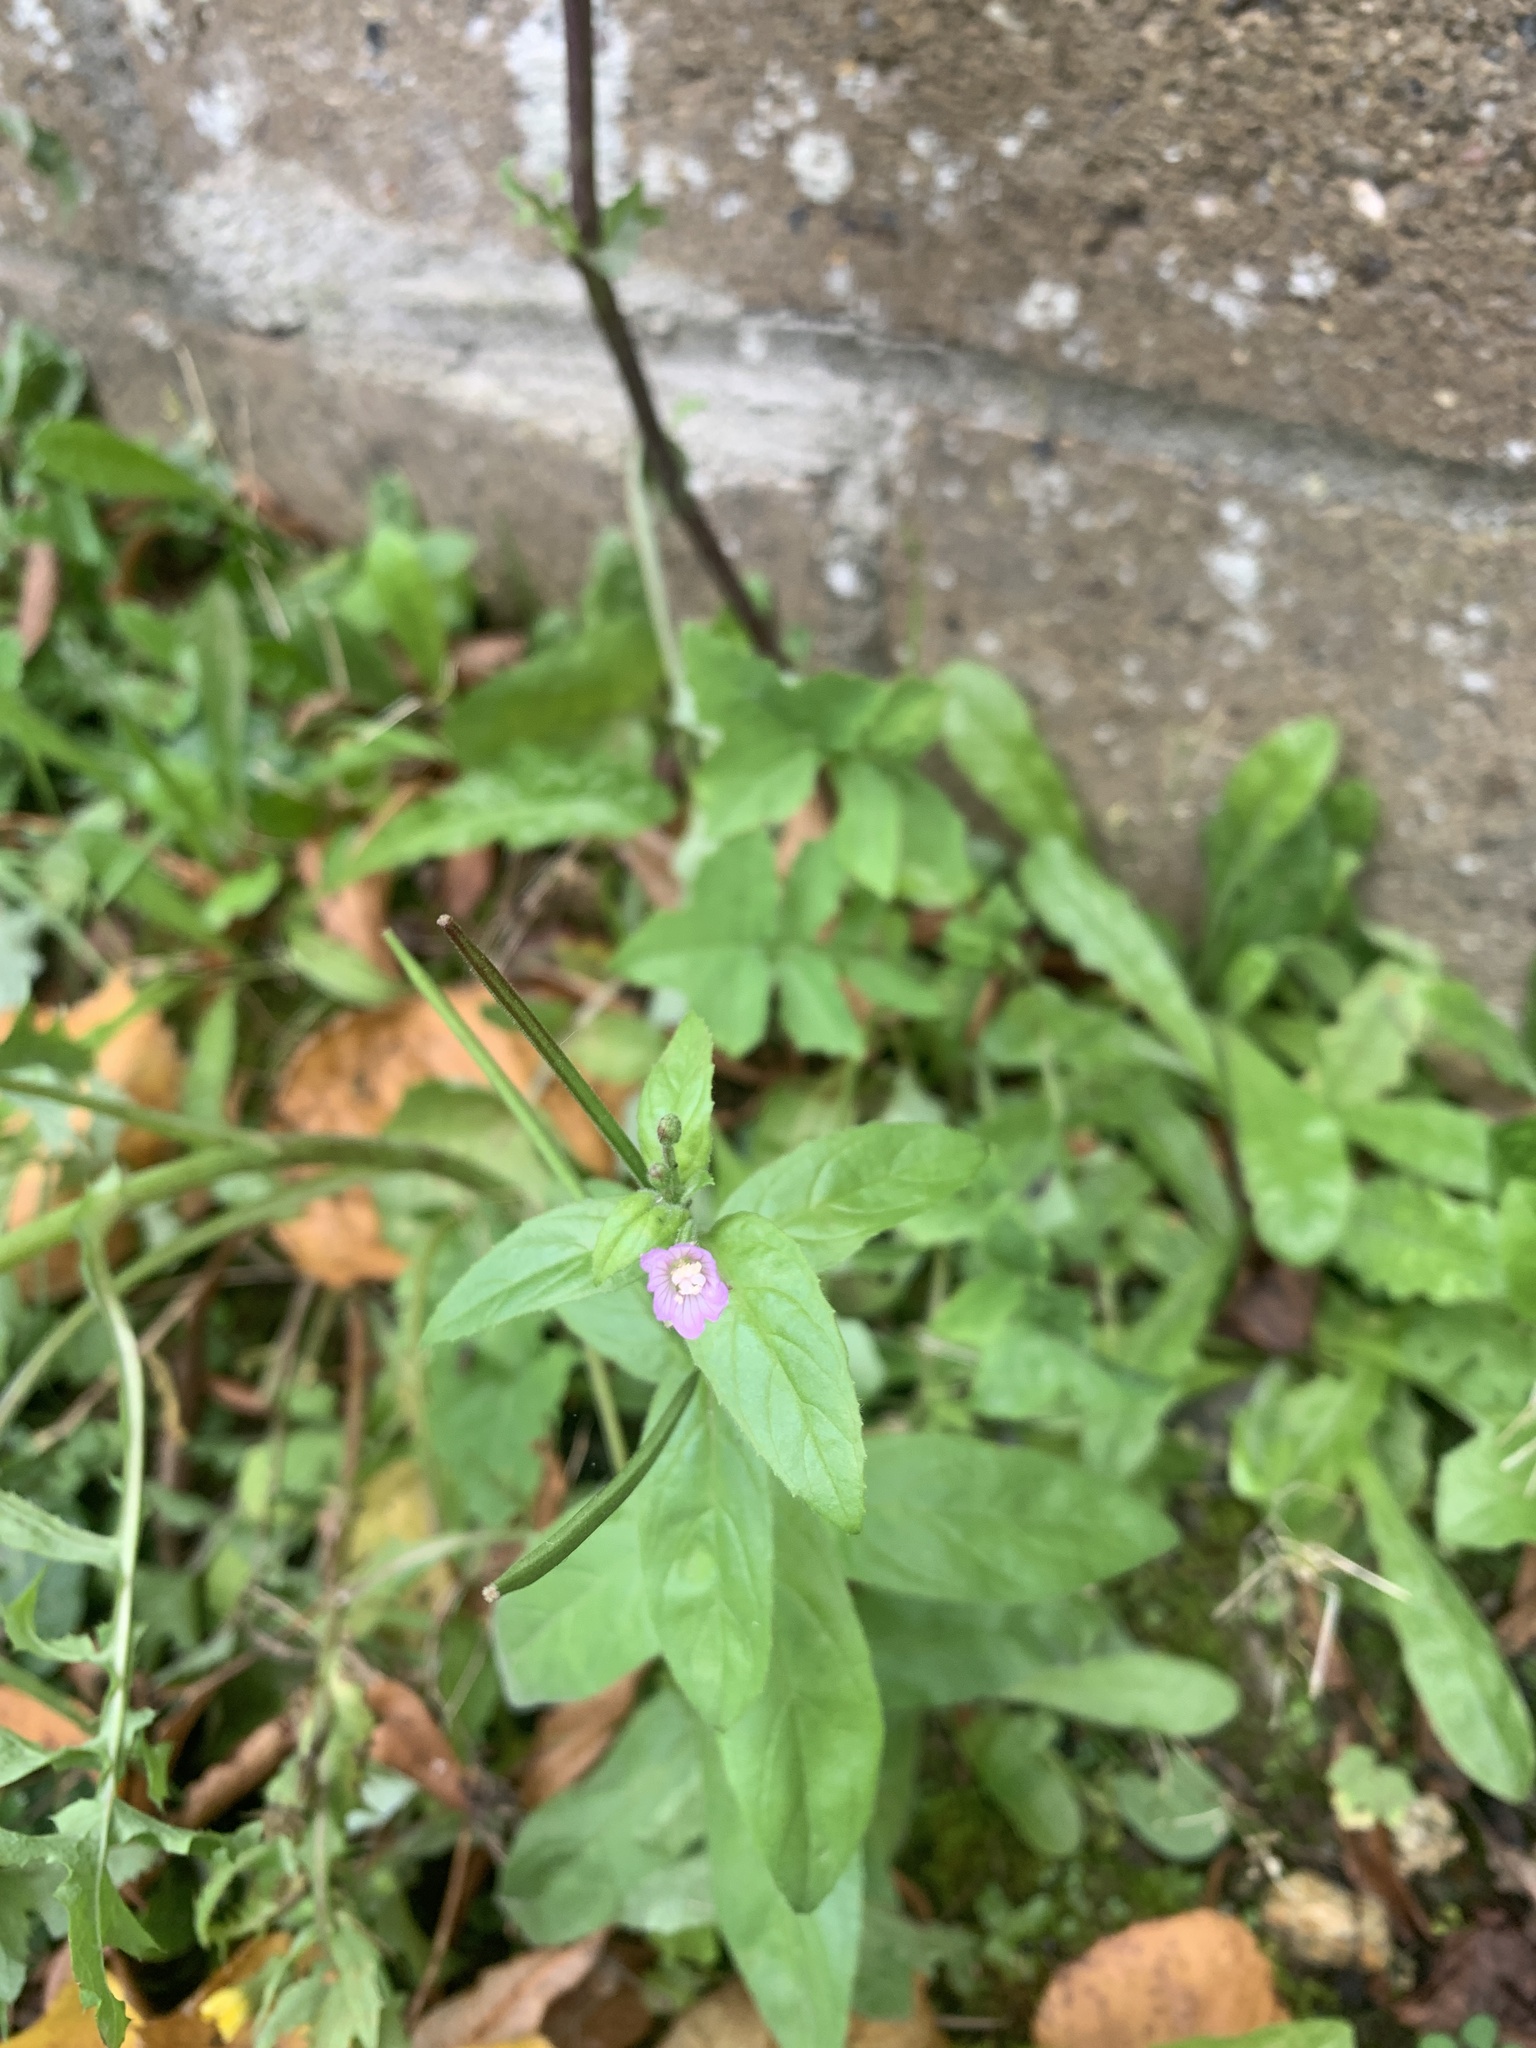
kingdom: Plantae
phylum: Tracheophyta
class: Magnoliopsida
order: Myrtales
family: Onagraceae
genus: Epilobium
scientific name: Epilobium parviflorum
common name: Hoary willowherb
